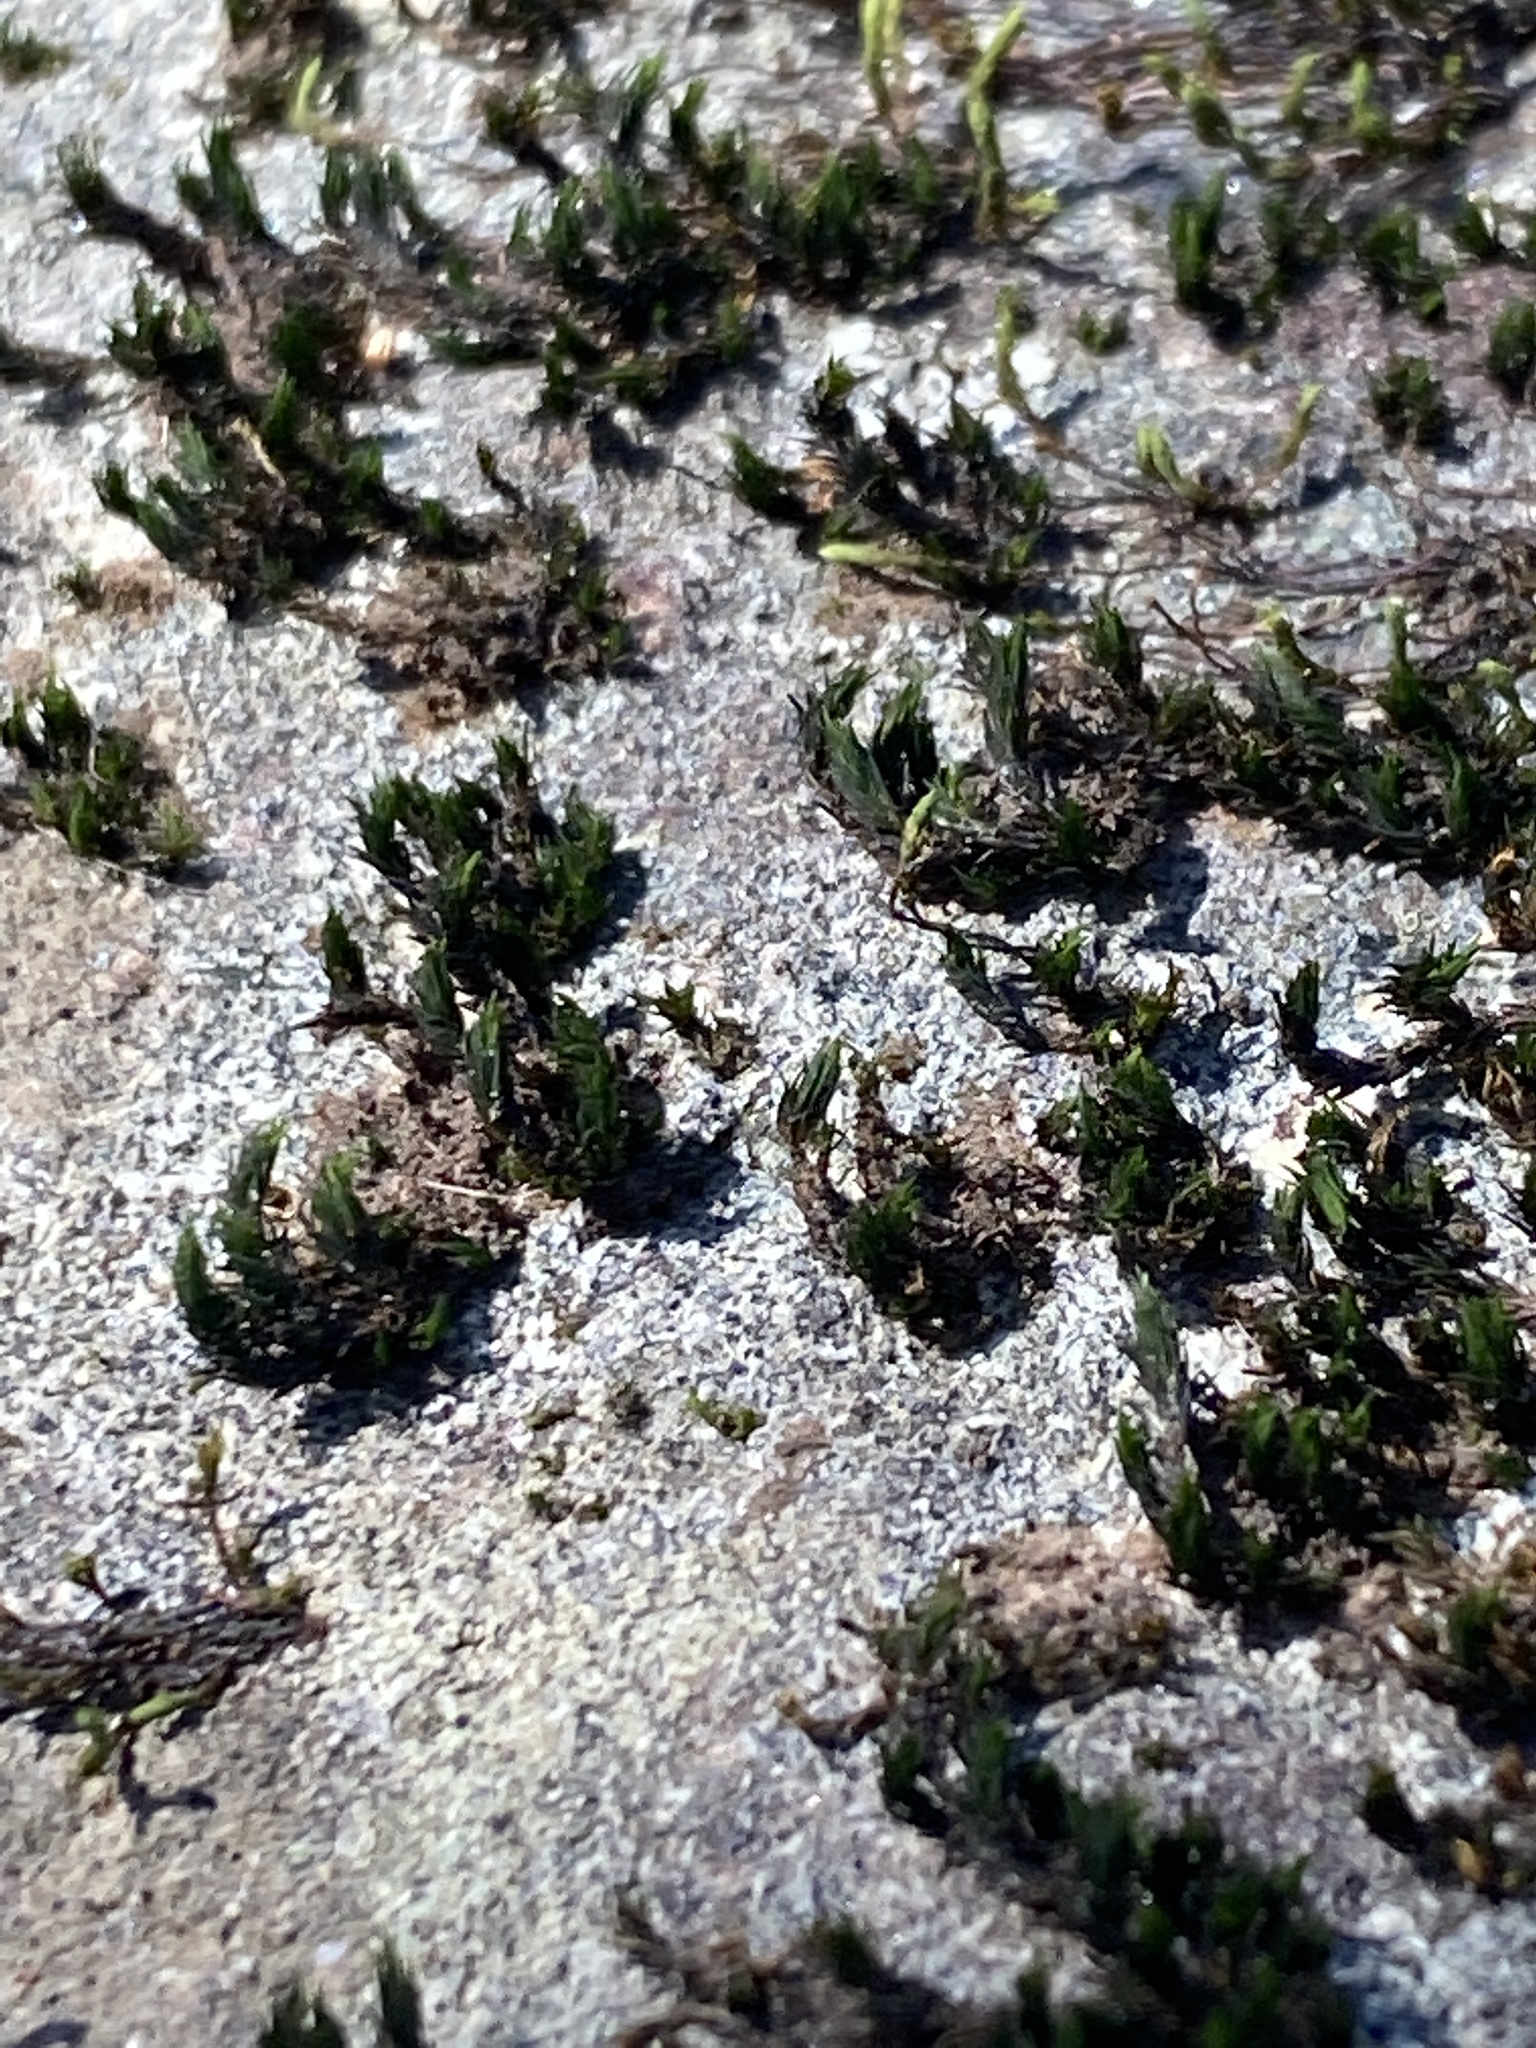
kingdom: Plantae
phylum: Bryophyta
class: Bryopsida
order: Grimmiales
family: Grimmiaceae
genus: Grimmia
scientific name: Grimmia laevigata
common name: Hoary grimmia
